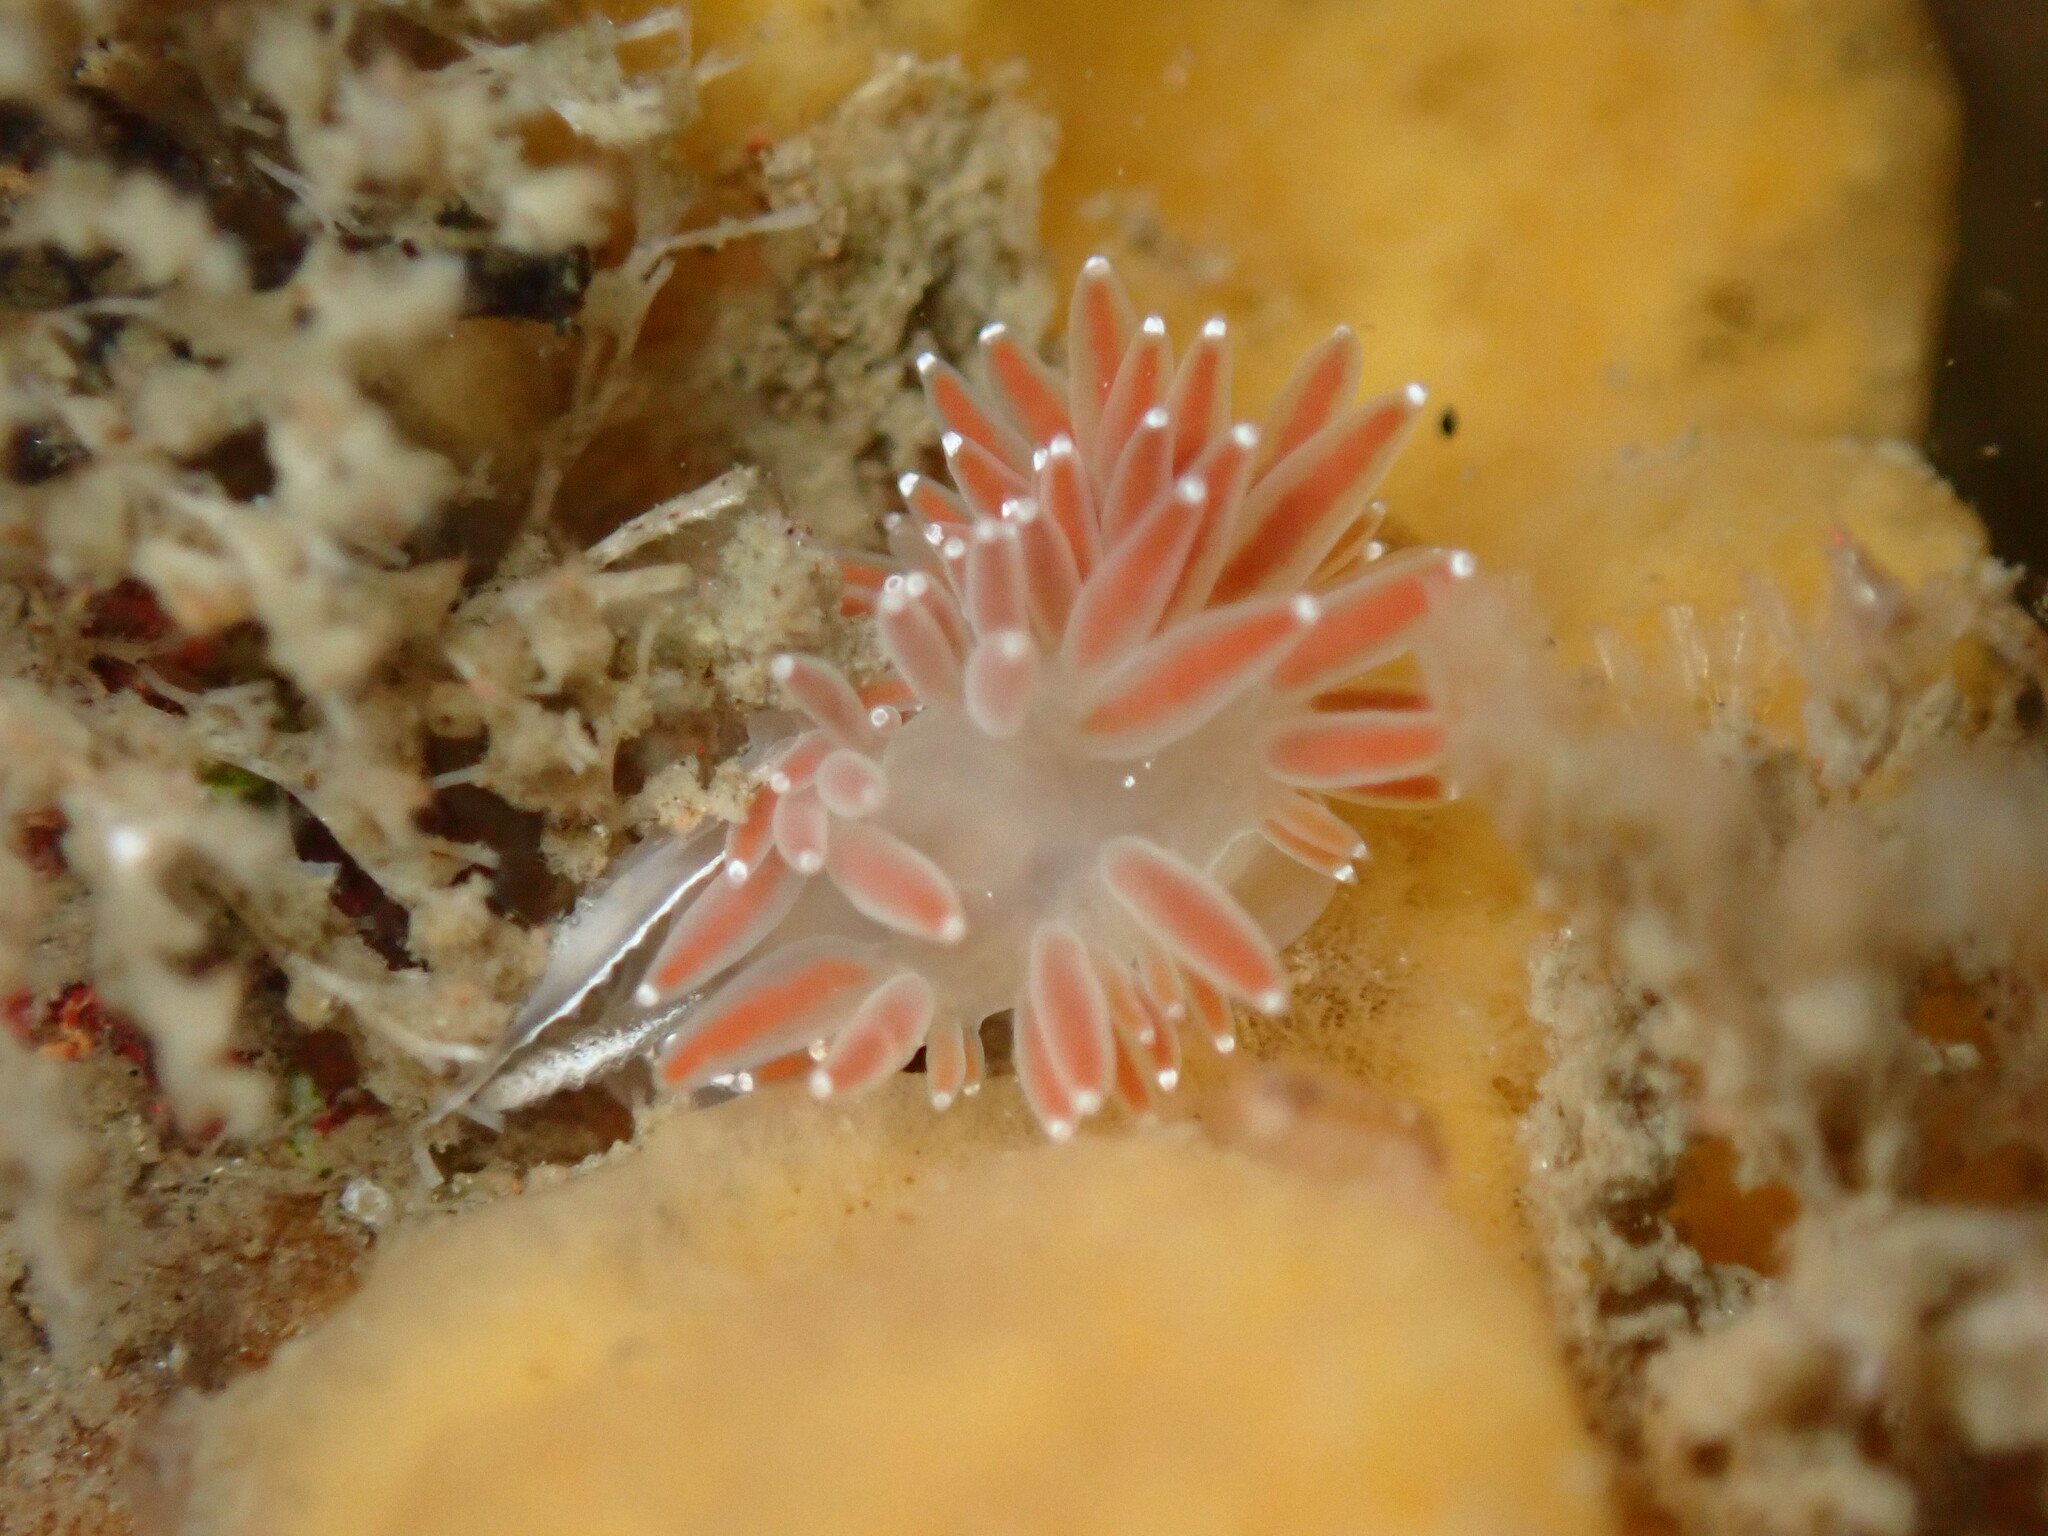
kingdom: Animalia
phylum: Mollusca
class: Gastropoda
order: Nudibranchia
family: Coryphellidae
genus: Coryphella
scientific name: Coryphella verrucosa
